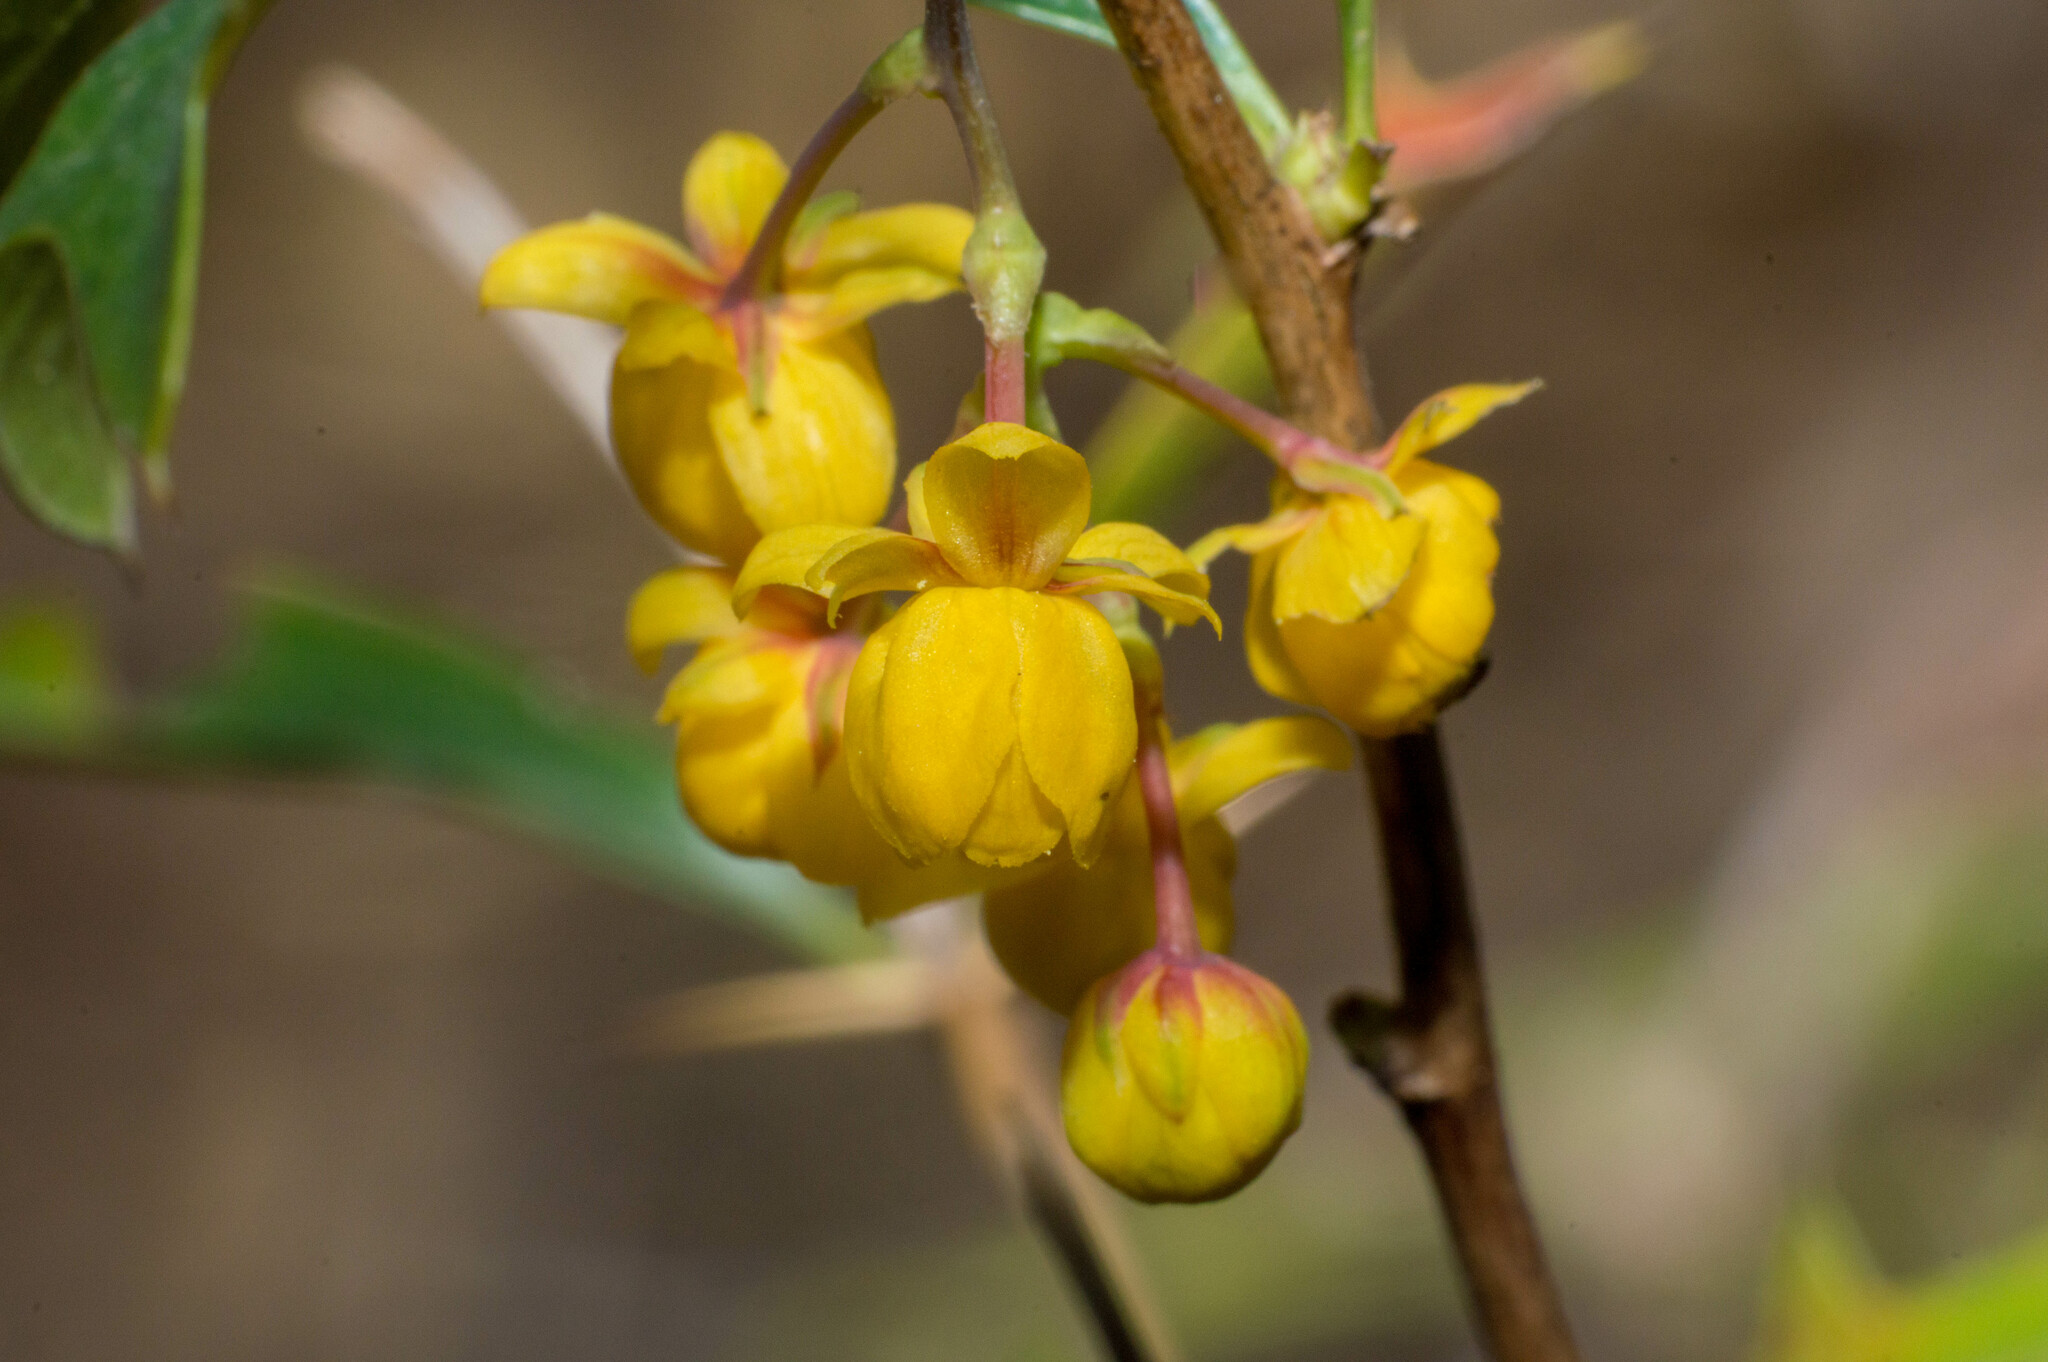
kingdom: Plantae
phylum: Tracheophyta
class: Magnoliopsida
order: Ranunculales
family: Berberidaceae
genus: Berberis
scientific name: Berberis ruscifolia
